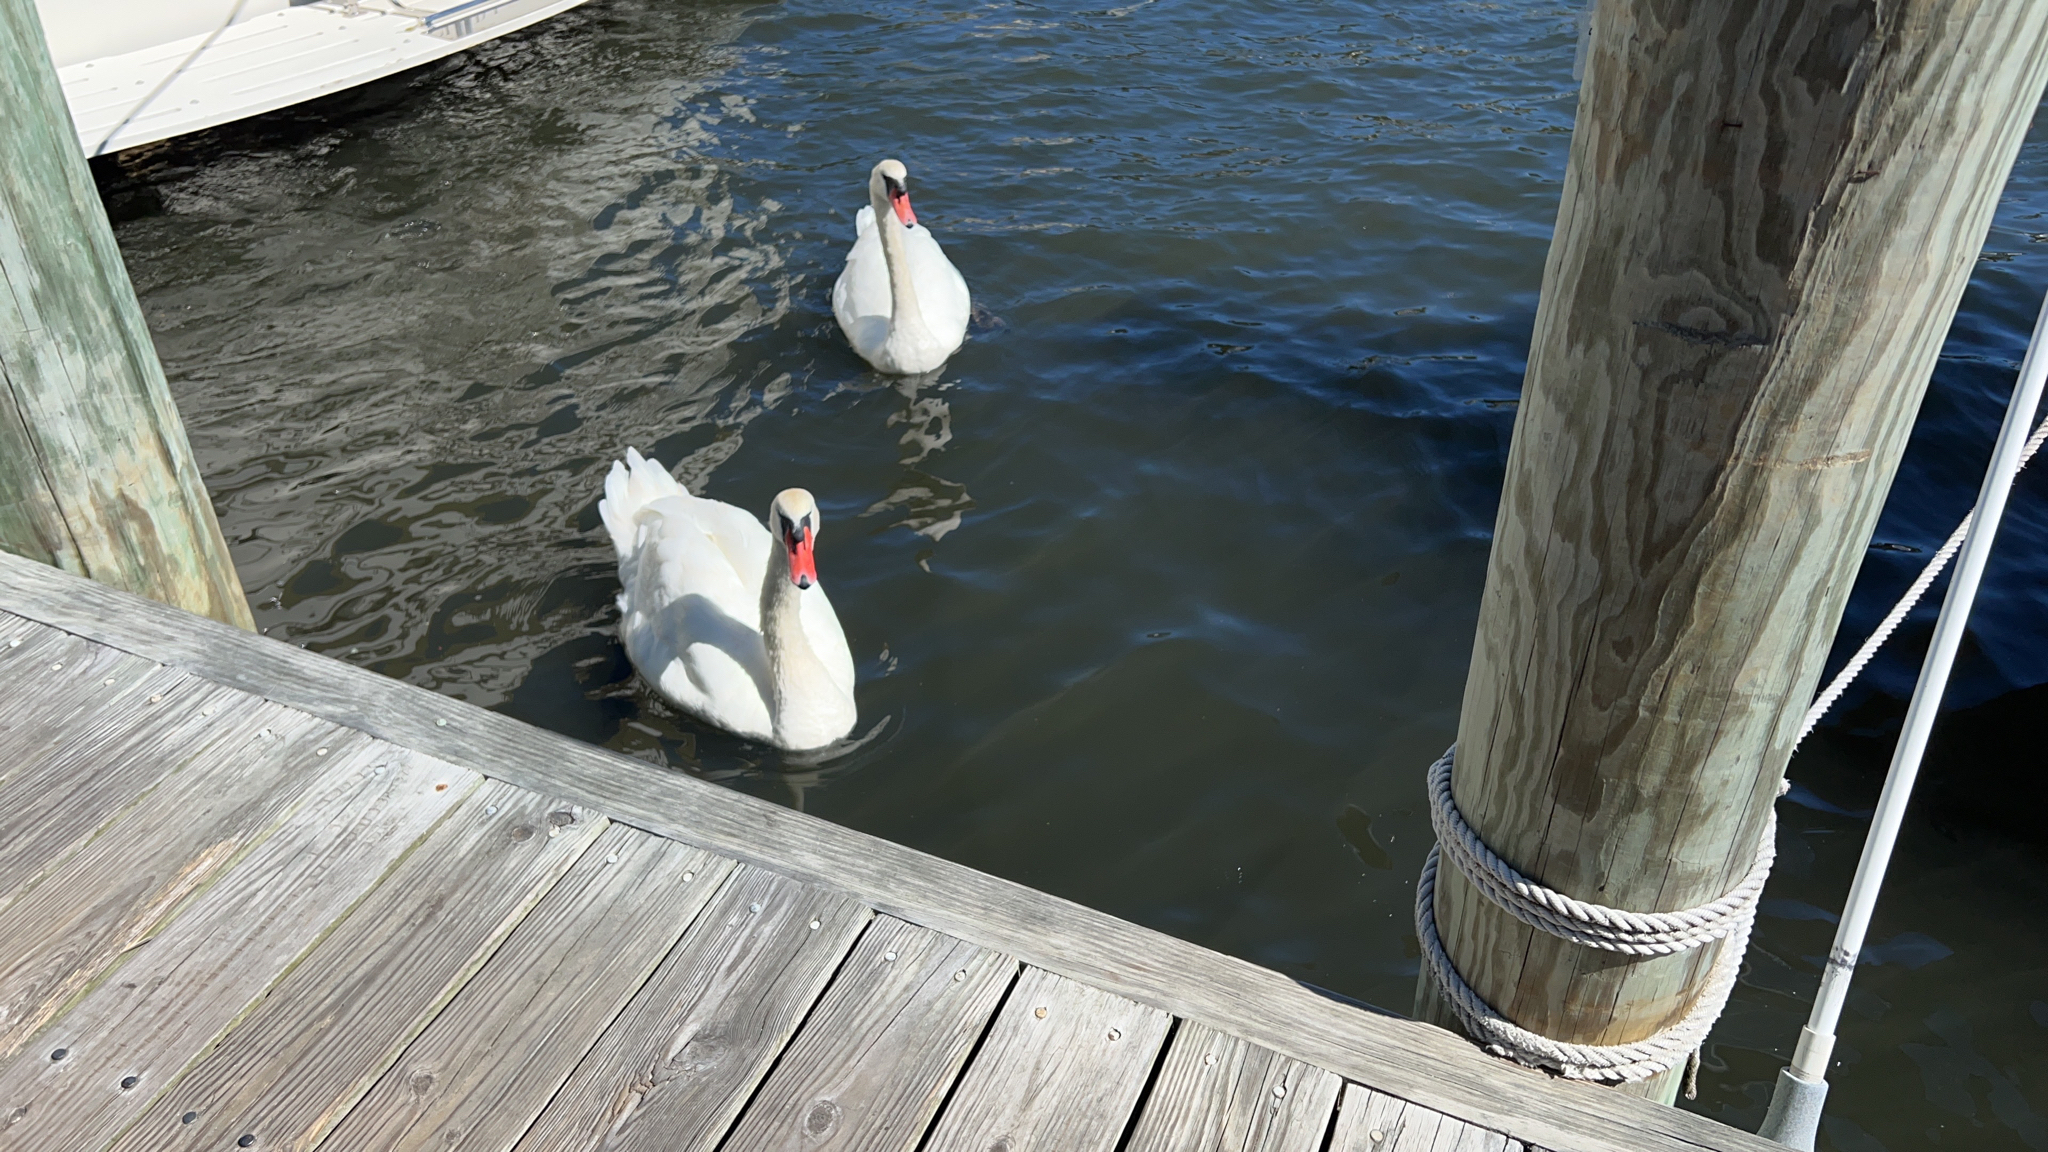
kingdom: Animalia
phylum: Chordata
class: Aves
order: Anseriformes
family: Anatidae
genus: Cygnus
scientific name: Cygnus olor
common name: Mute swan
